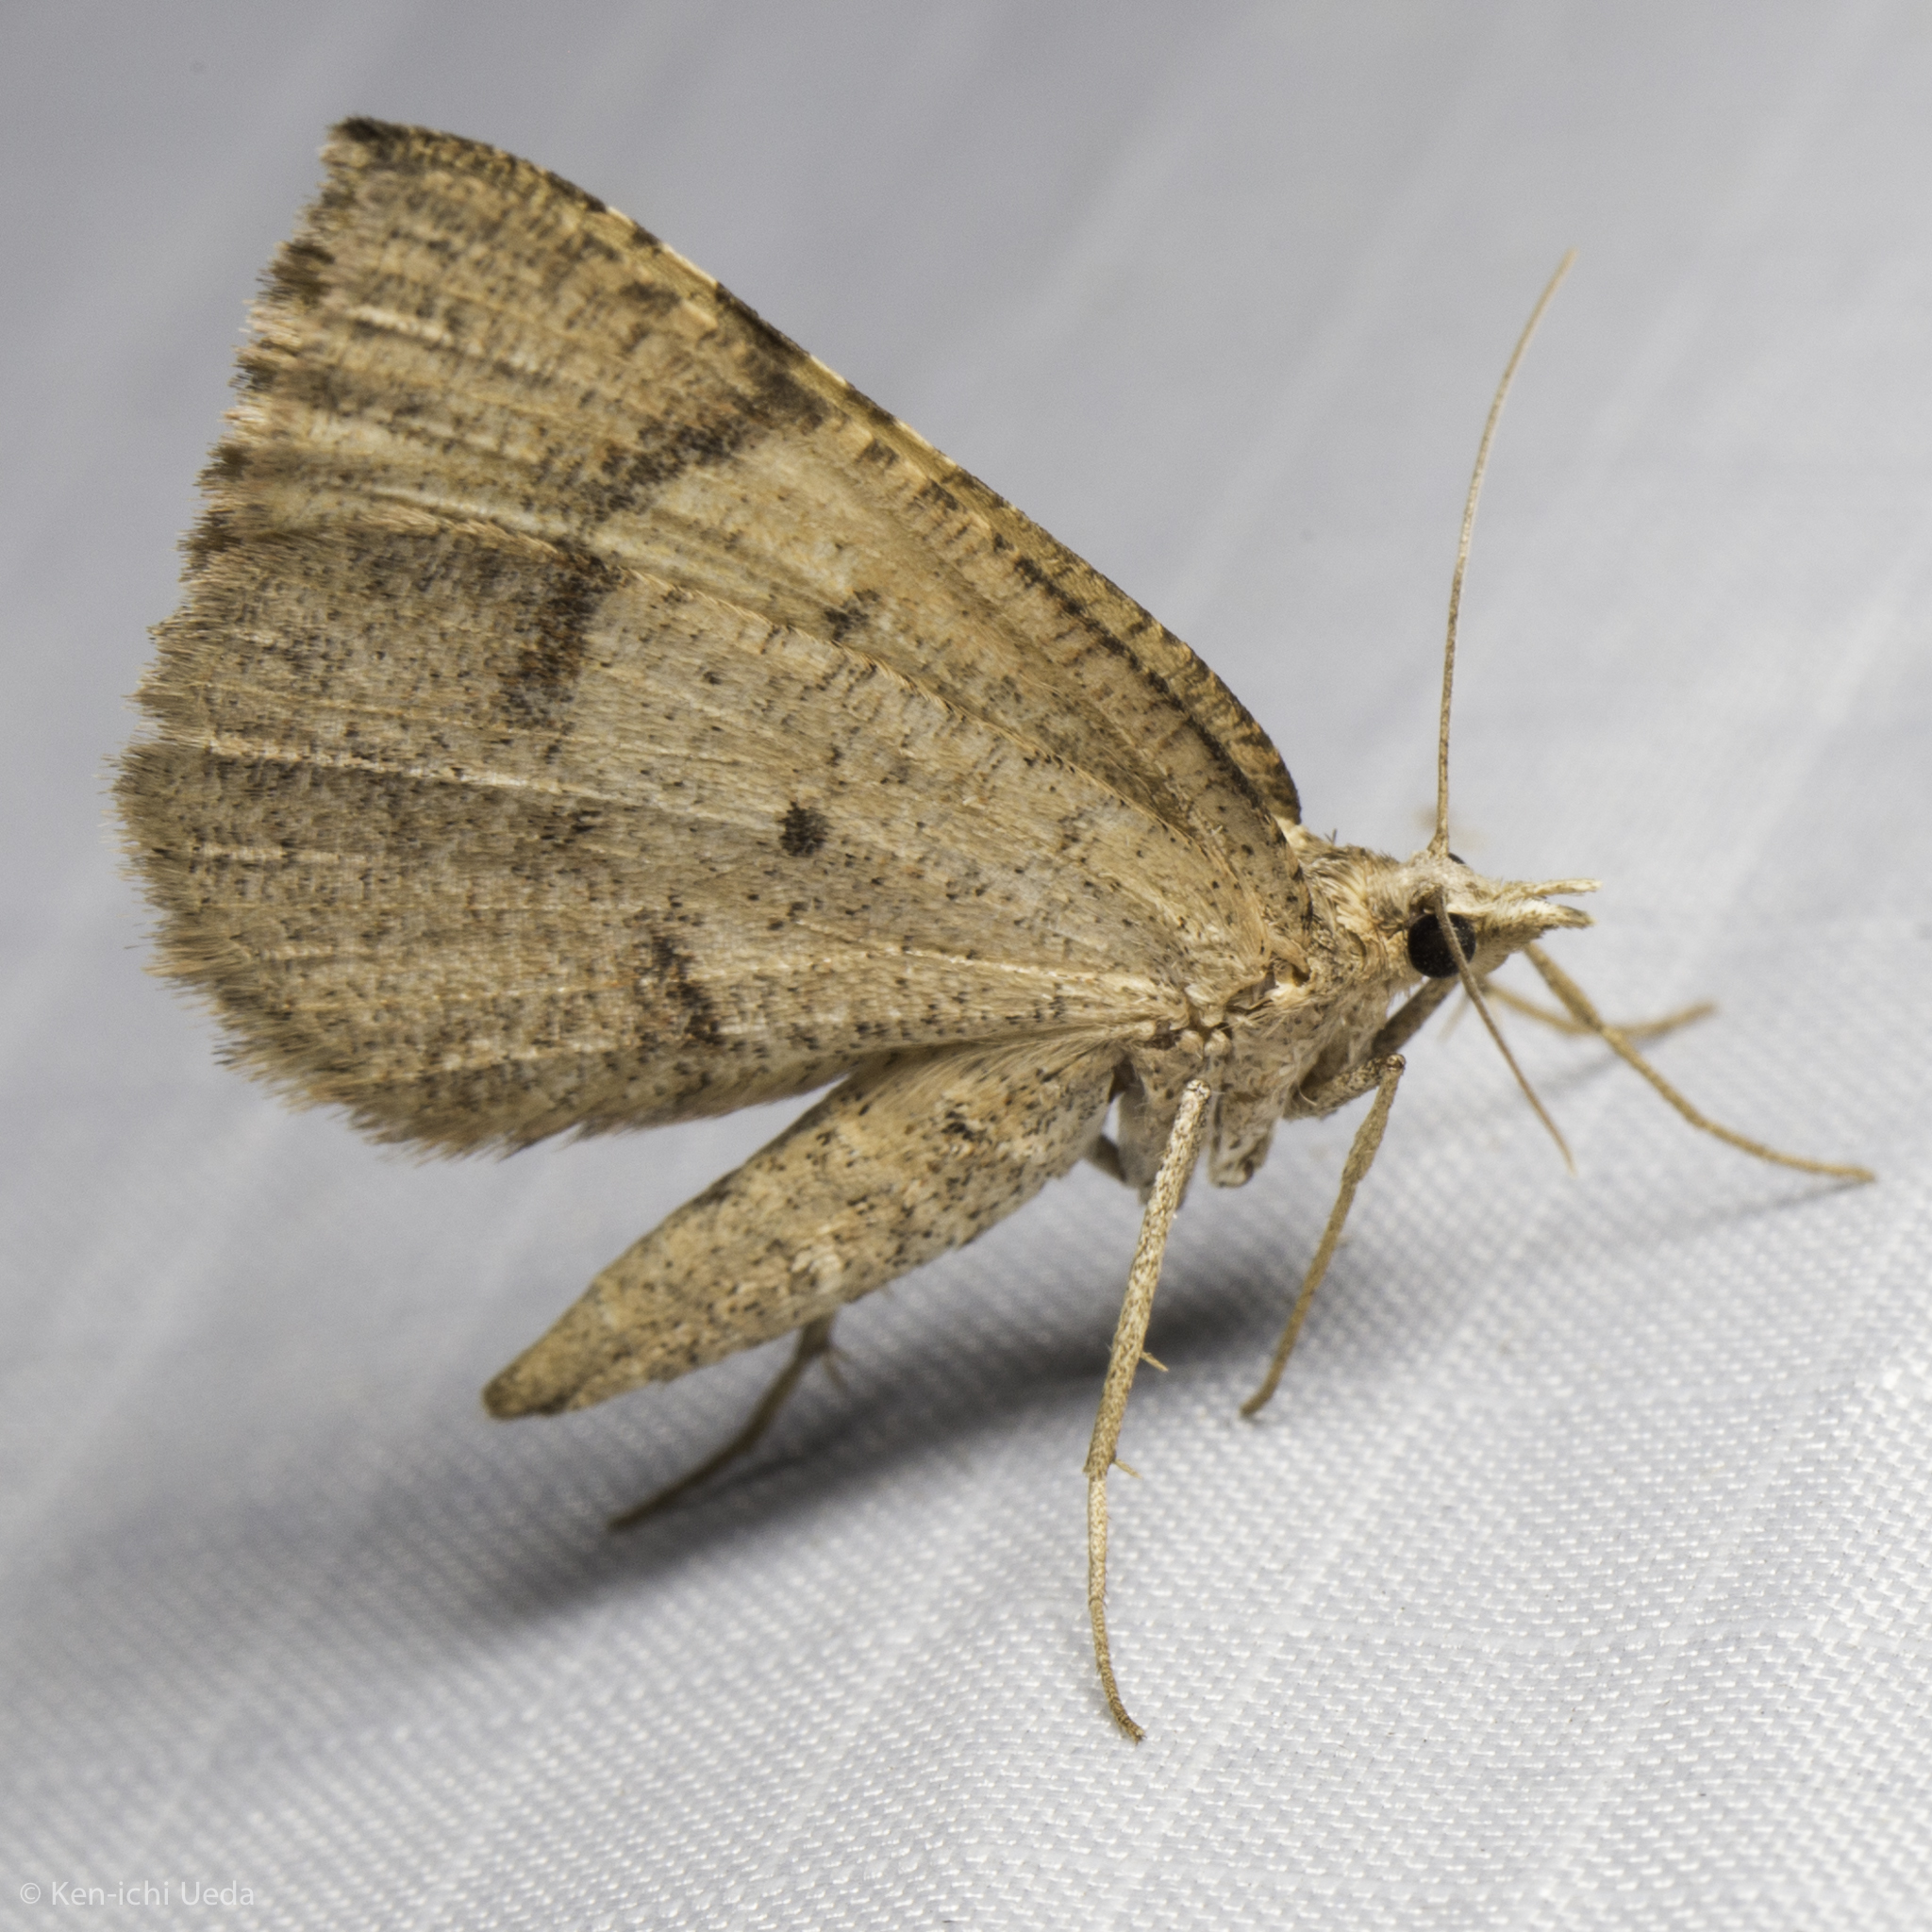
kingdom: Animalia
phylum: Arthropoda
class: Insecta
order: Lepidoptera
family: Geometridae
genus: Sericosema
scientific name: Sericosema juturnaria
